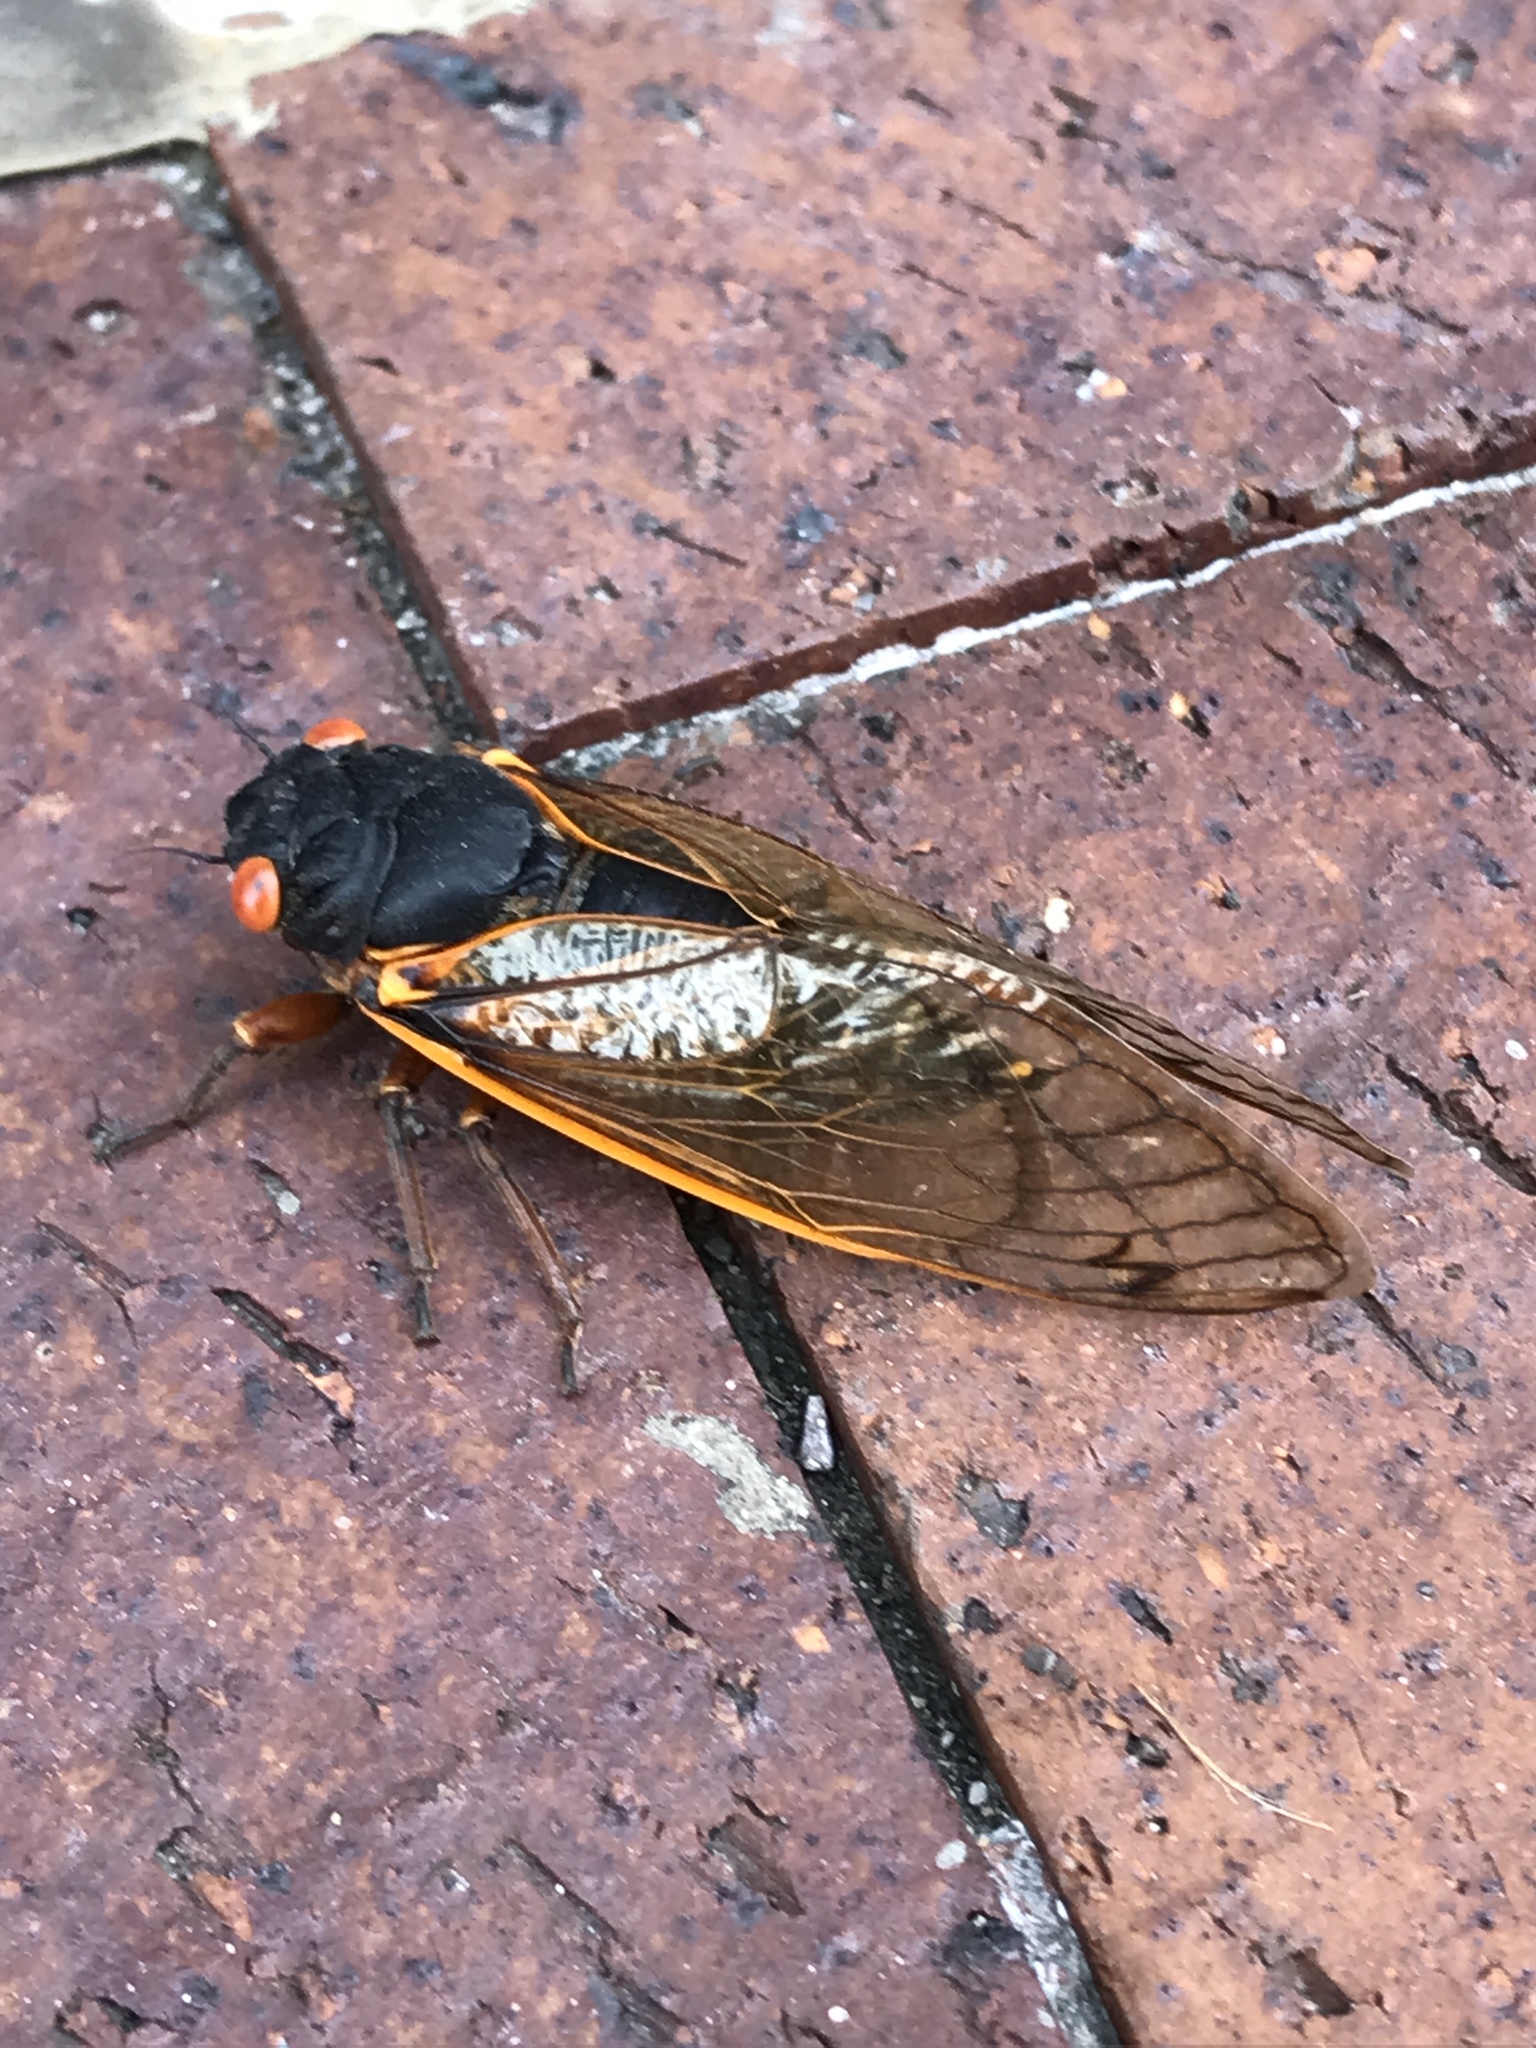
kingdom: Animalia
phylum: Arthropoda
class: Insecta
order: Hemiptera
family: Cicadidae
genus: Magicicada
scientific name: Magicicada septendecim
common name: Periodical cicada
